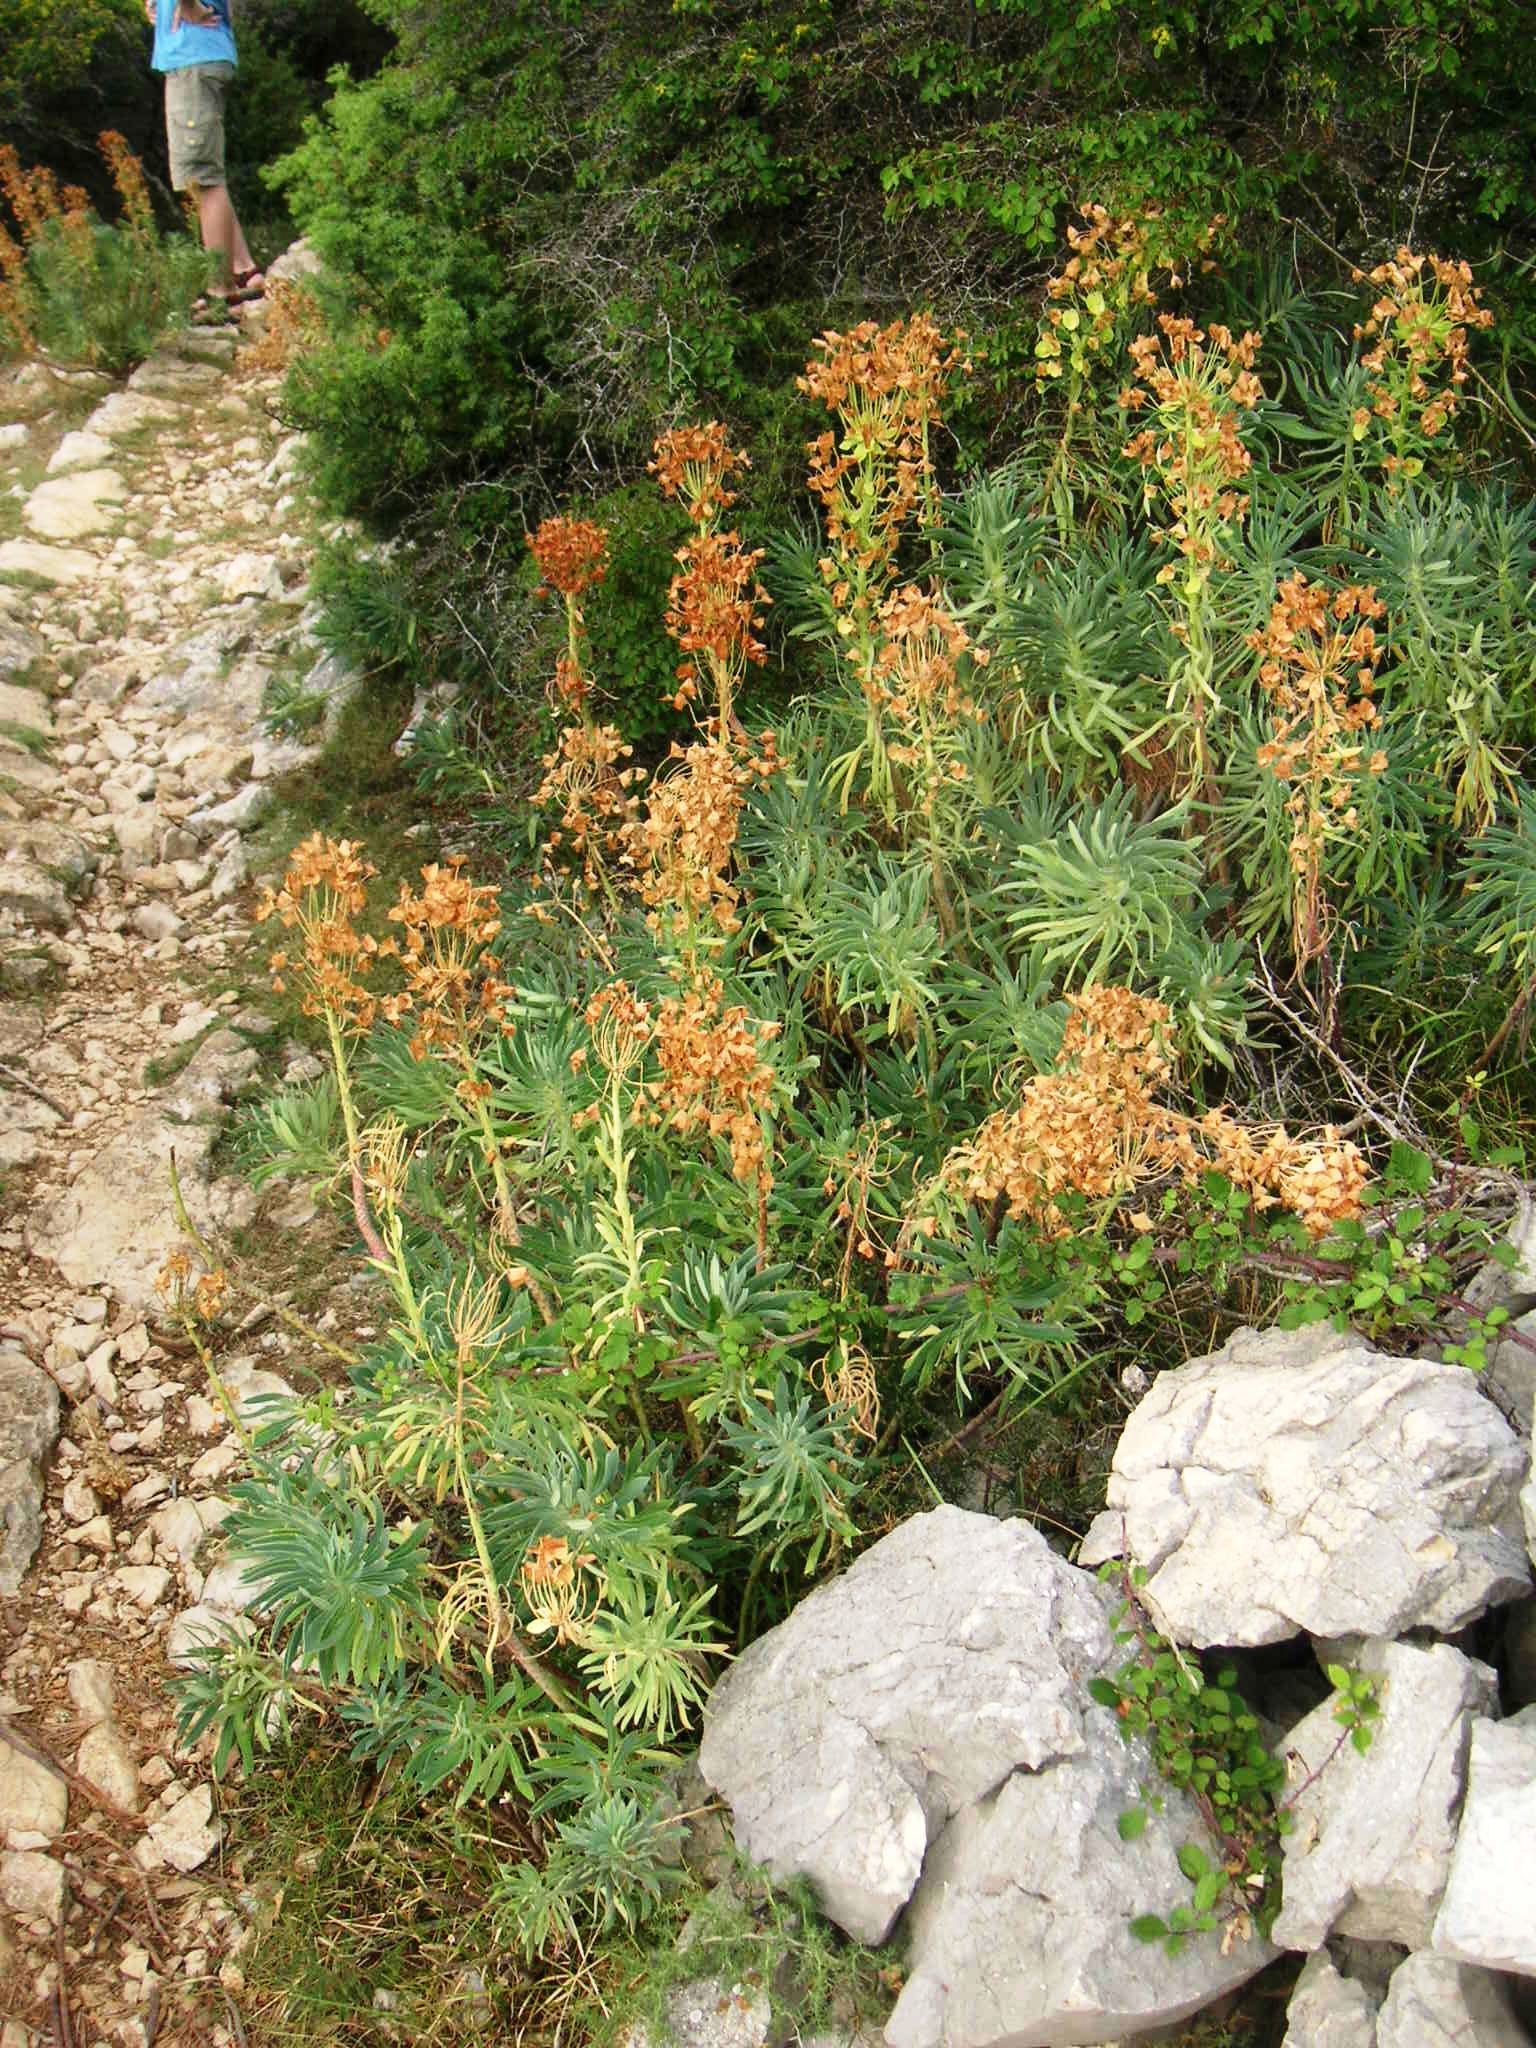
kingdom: Plantae
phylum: Tracheophyta
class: Magnoliopsida
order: Malpighiales
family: Euphorbiaceae
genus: Euphorbia
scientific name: Euphorbia characias
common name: Mediterranean spurge
